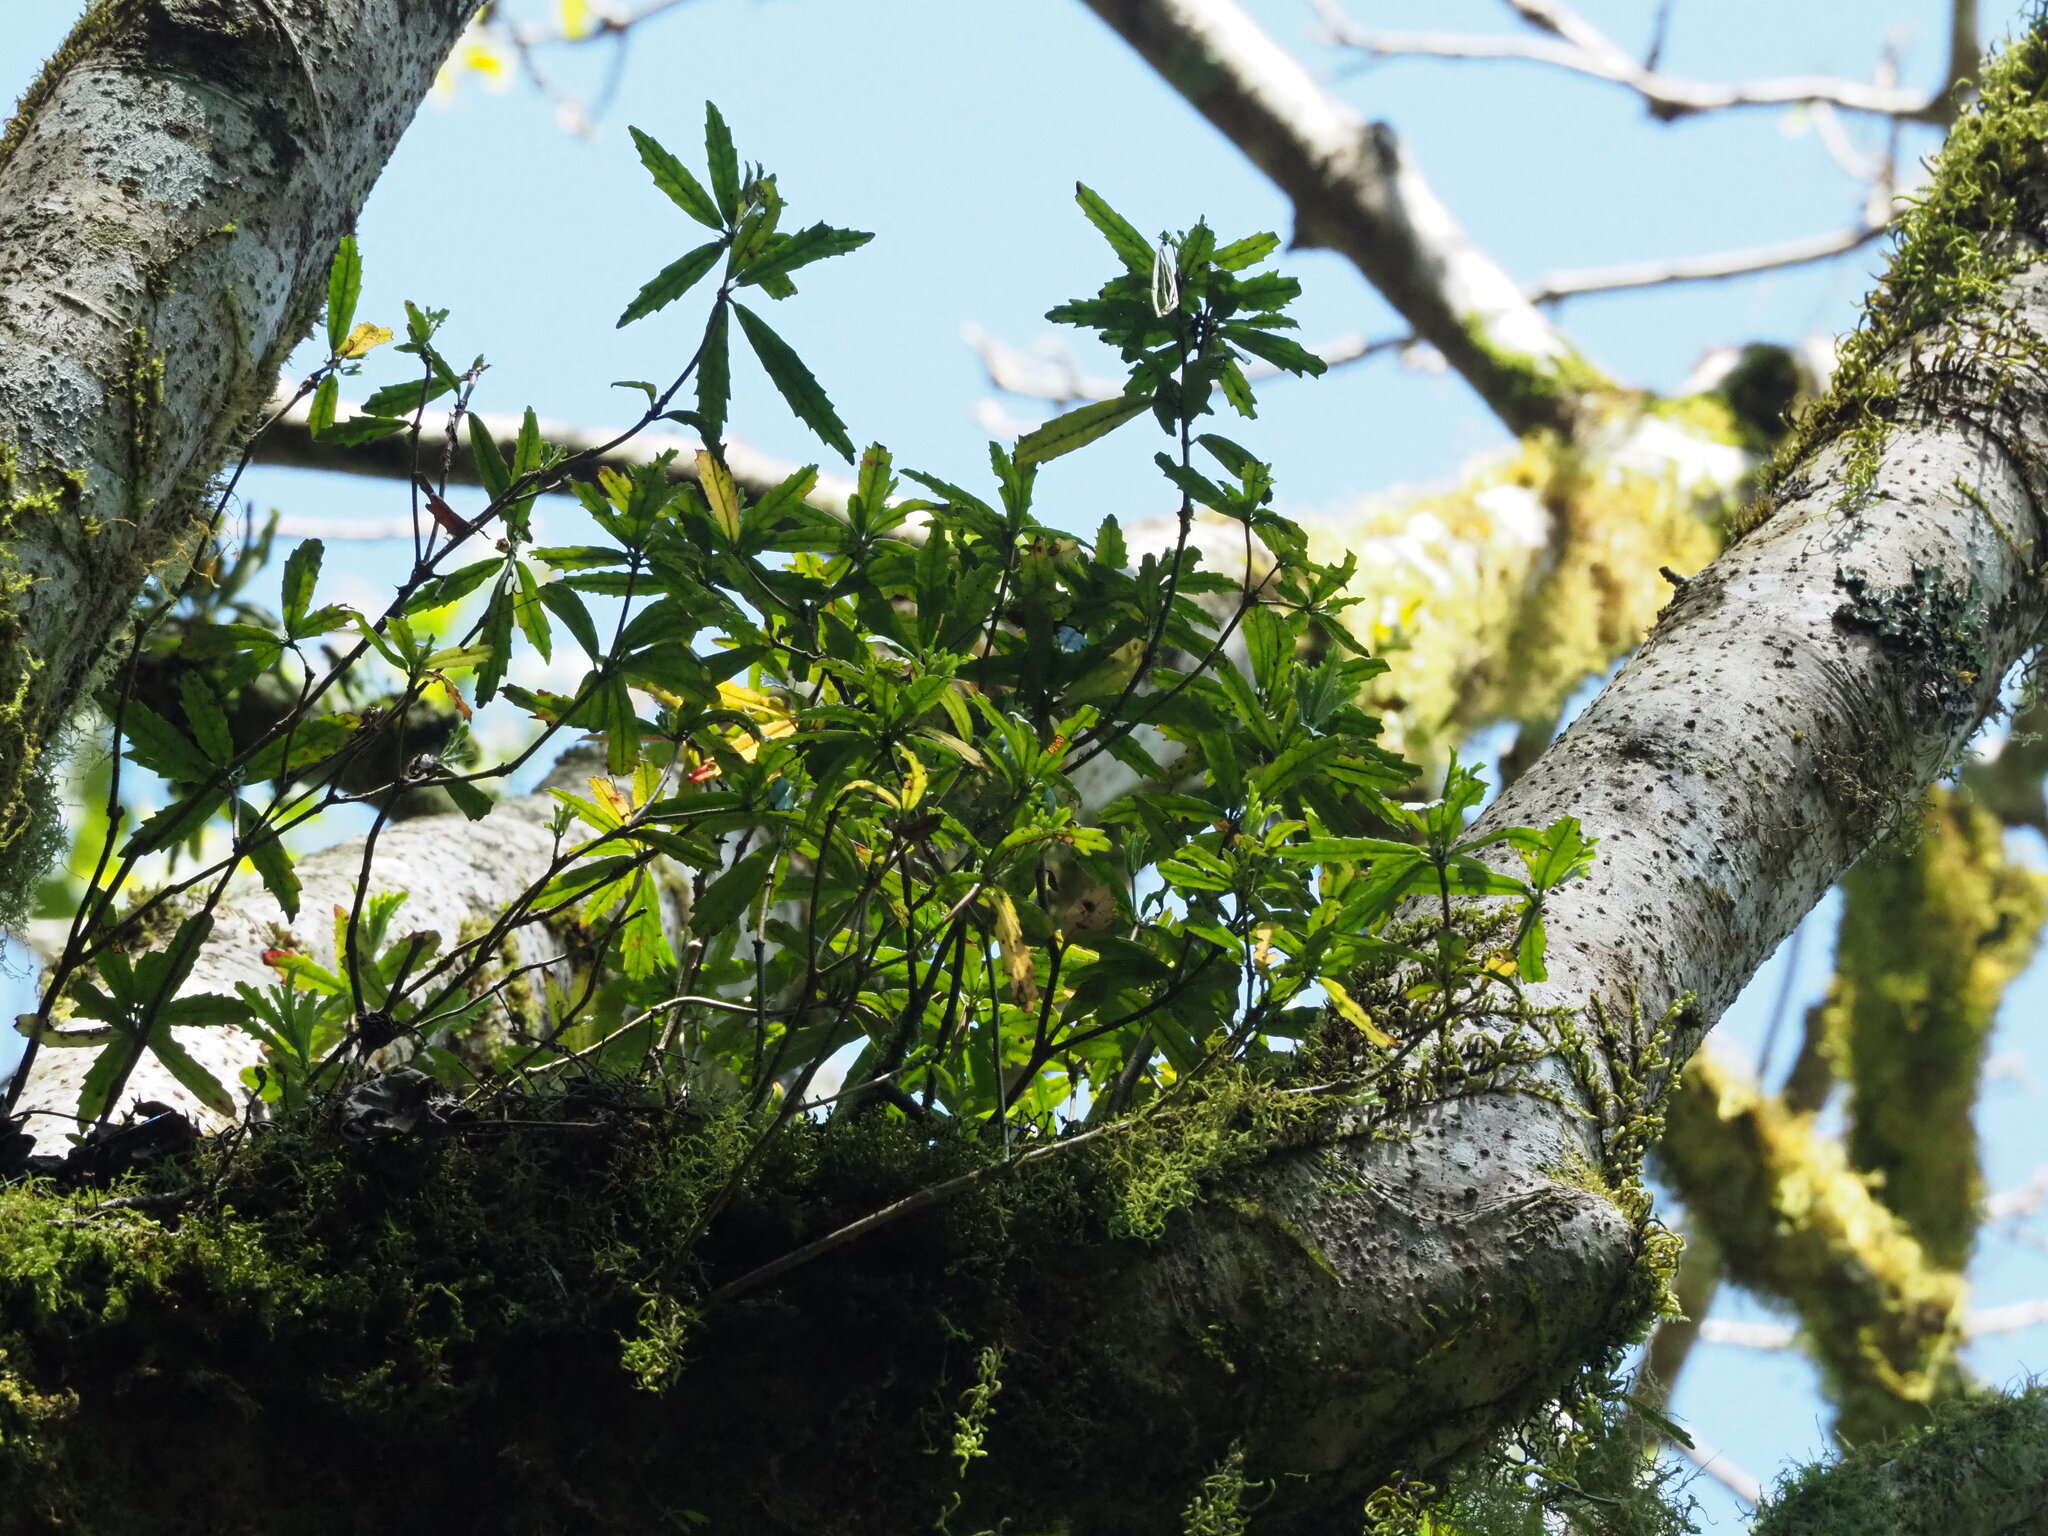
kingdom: Plantae
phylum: Tracheophyta
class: Magnoliopsida
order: Lamiales
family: Gesneriaceae
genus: Lysionotus
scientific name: Lysionotus pauciflorus
